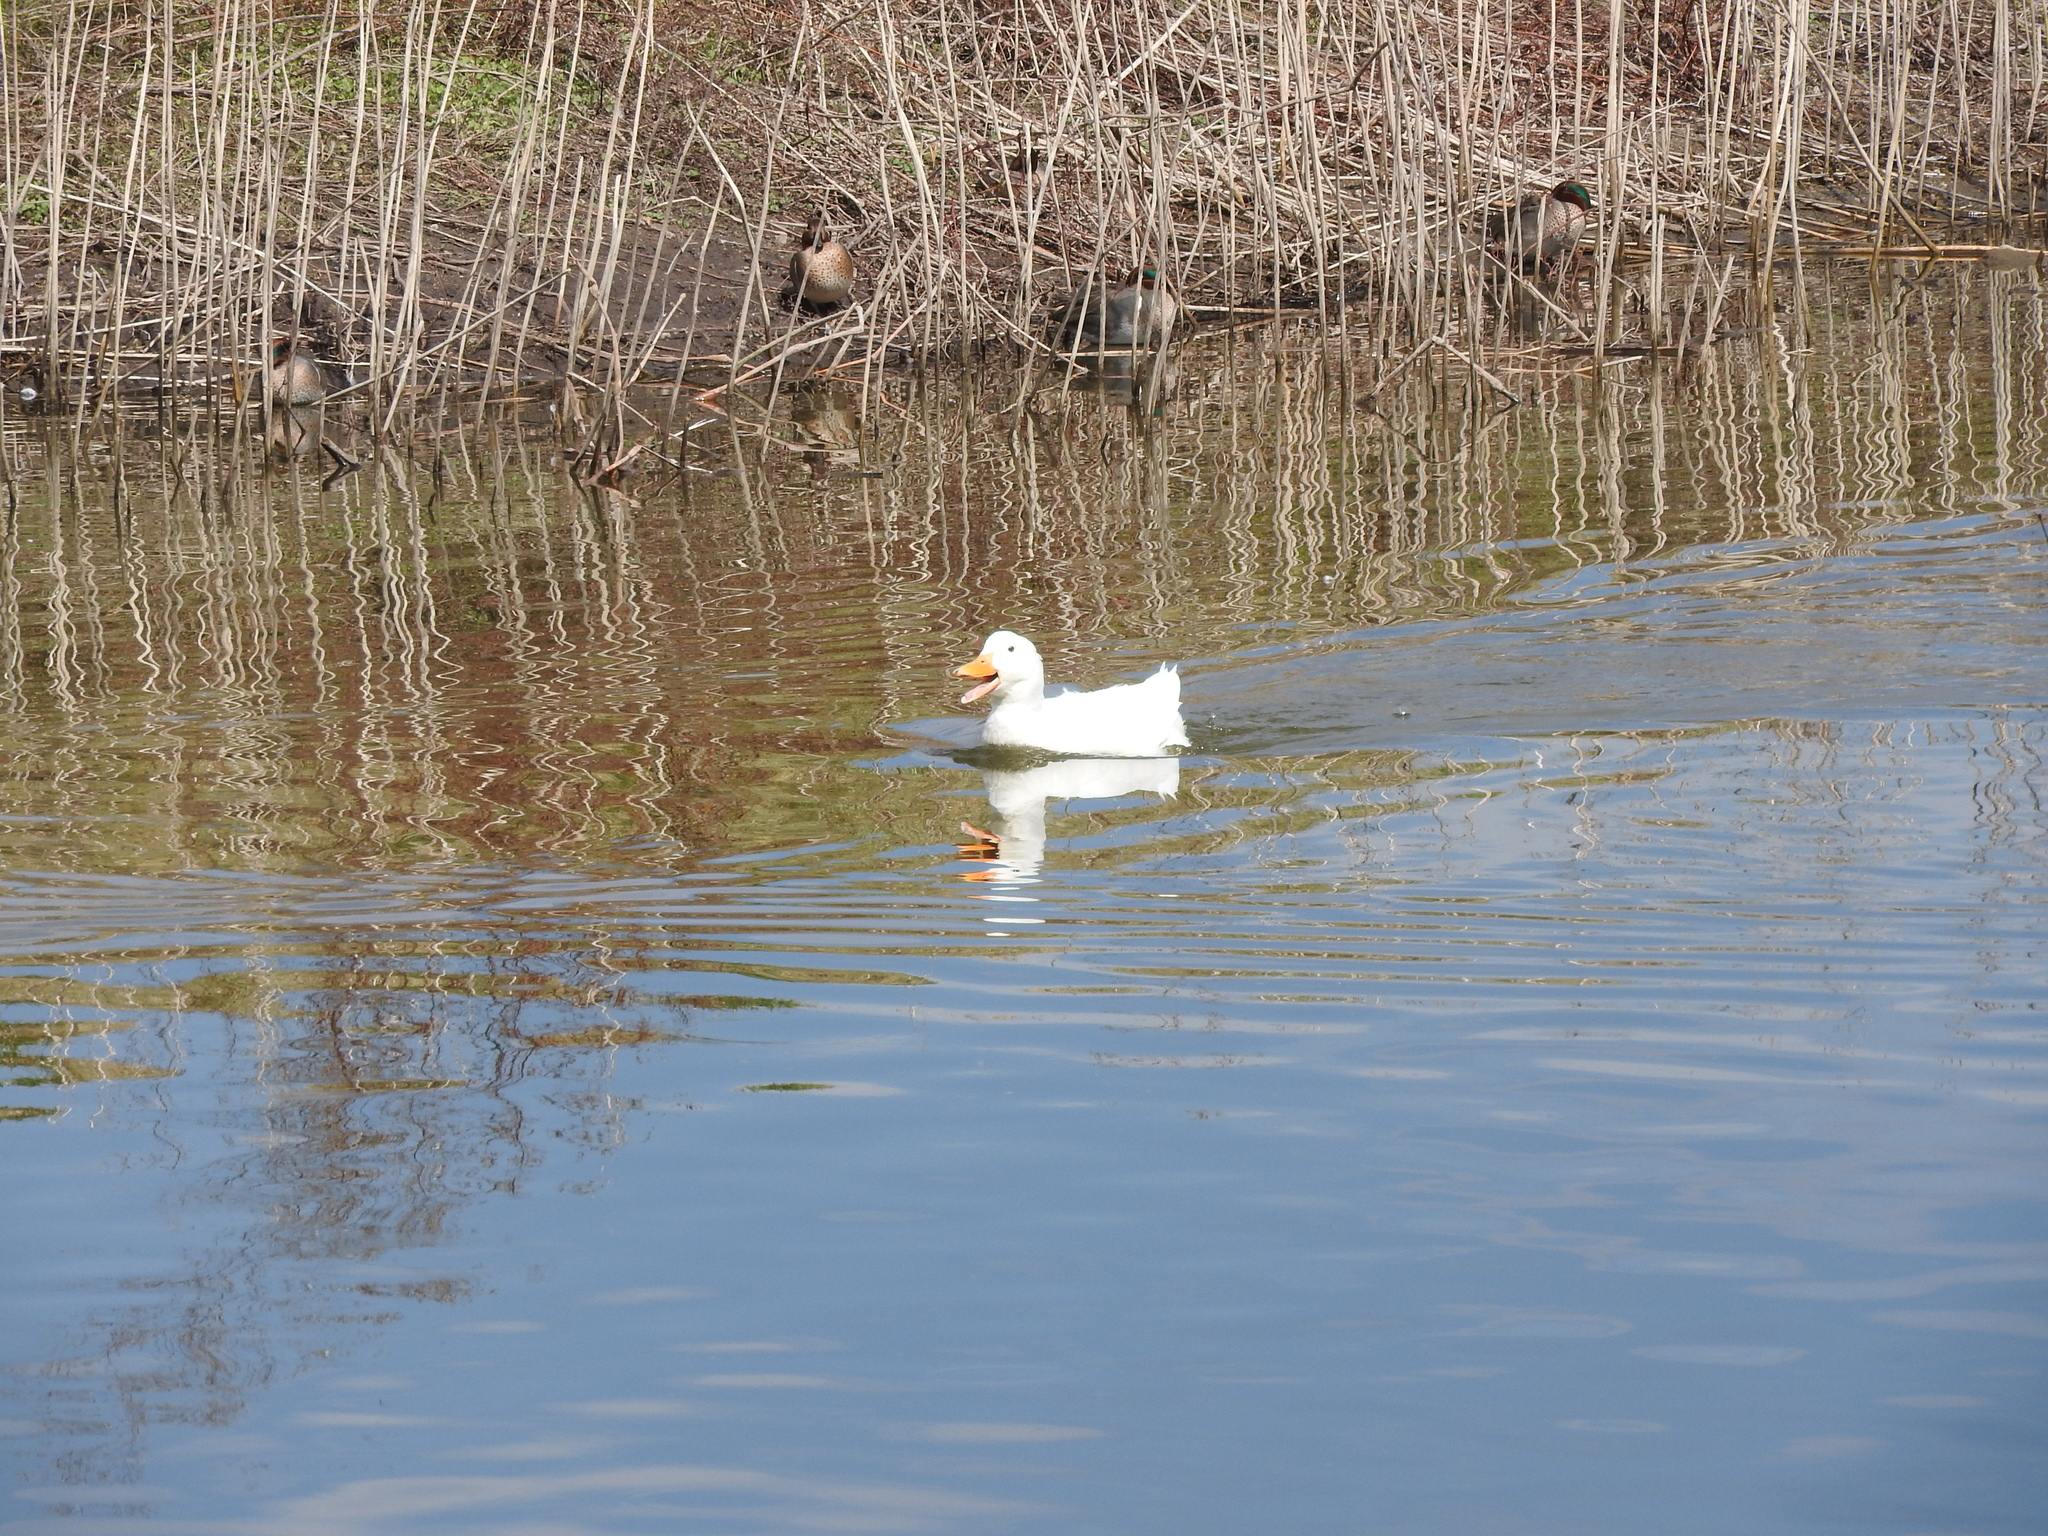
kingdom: Animalia
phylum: Chordata
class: Aves
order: Anseriformes
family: Anatidae
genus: Anas
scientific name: Anas platyrhynchos
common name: Mallard
